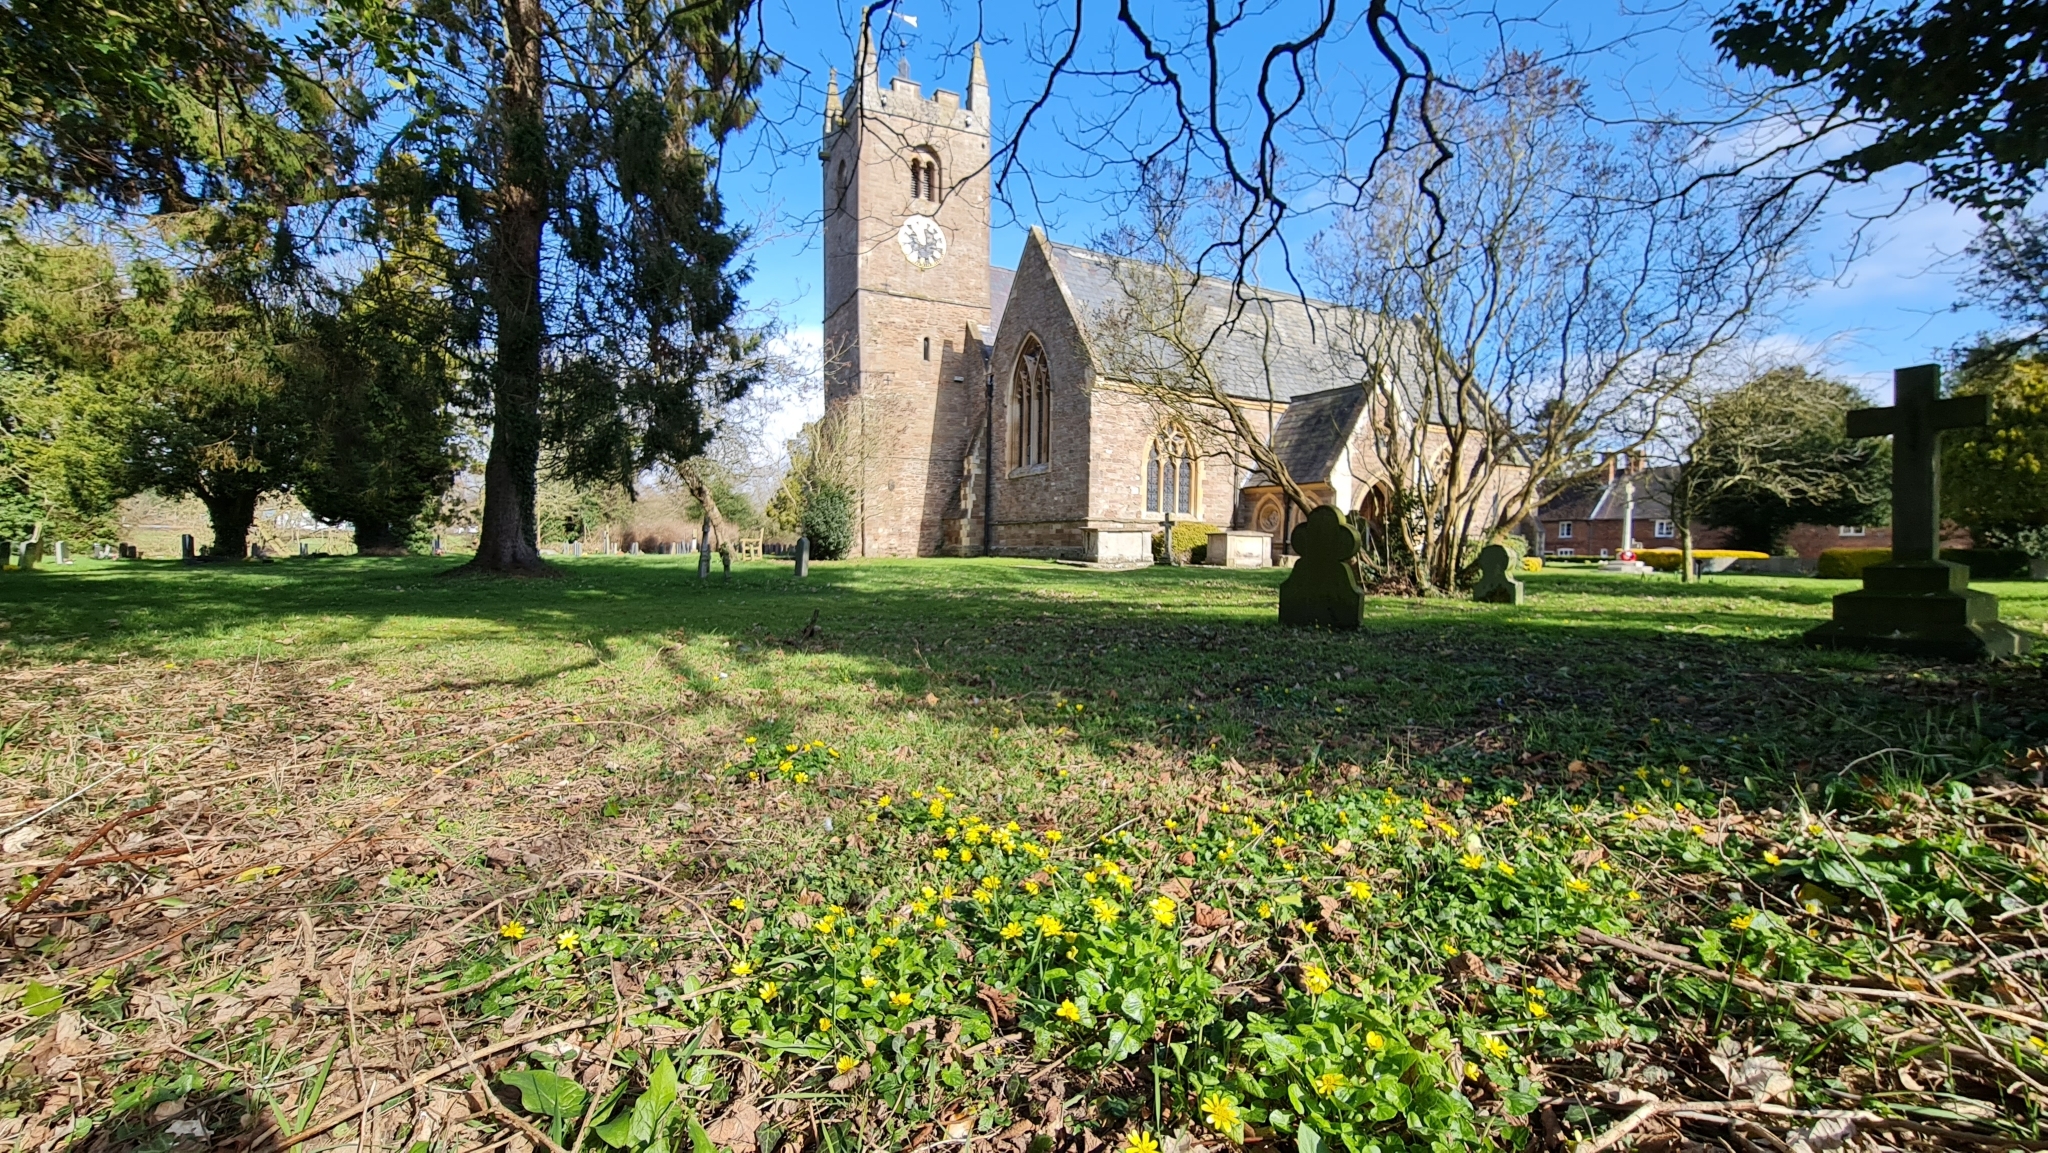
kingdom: Plantae
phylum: Tracheophyta
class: Magnoliopsida
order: Ranunculales
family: Ranunculaceae
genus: Ficaria
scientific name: Ficaria verna
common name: Lesser celandine
